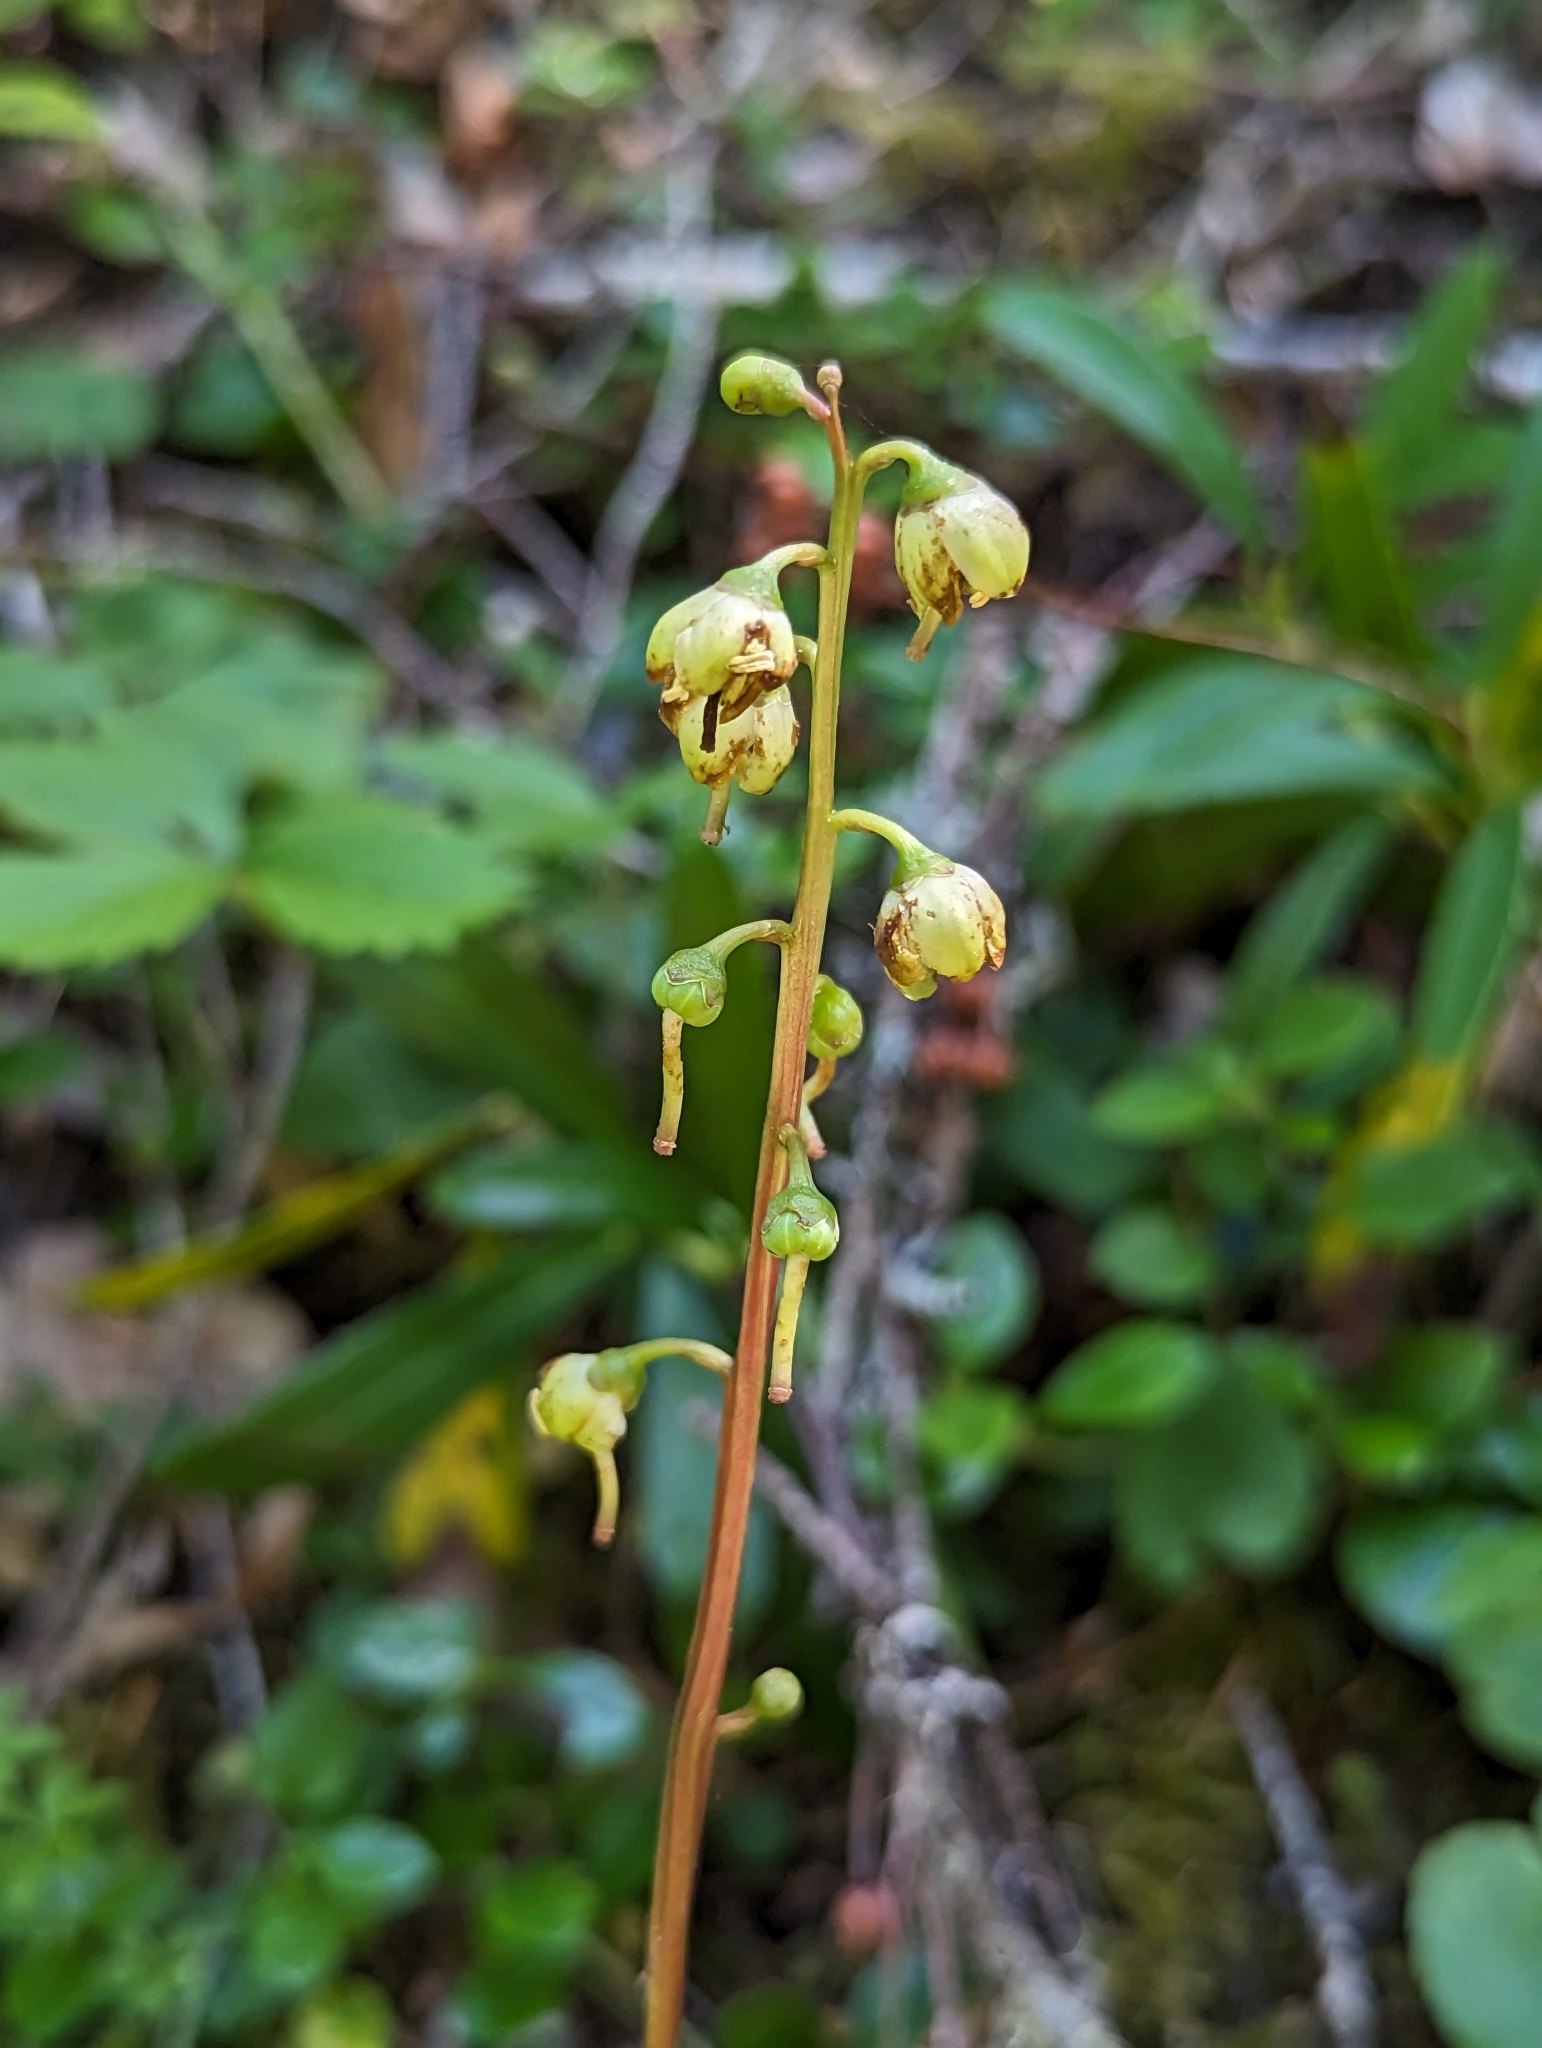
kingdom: Plantae
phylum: Tracheophyta
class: Magnoliopsida
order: Ericales
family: Ericaceae
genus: Pyrola
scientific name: Pyrola chlorantha
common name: Green wintergreen
